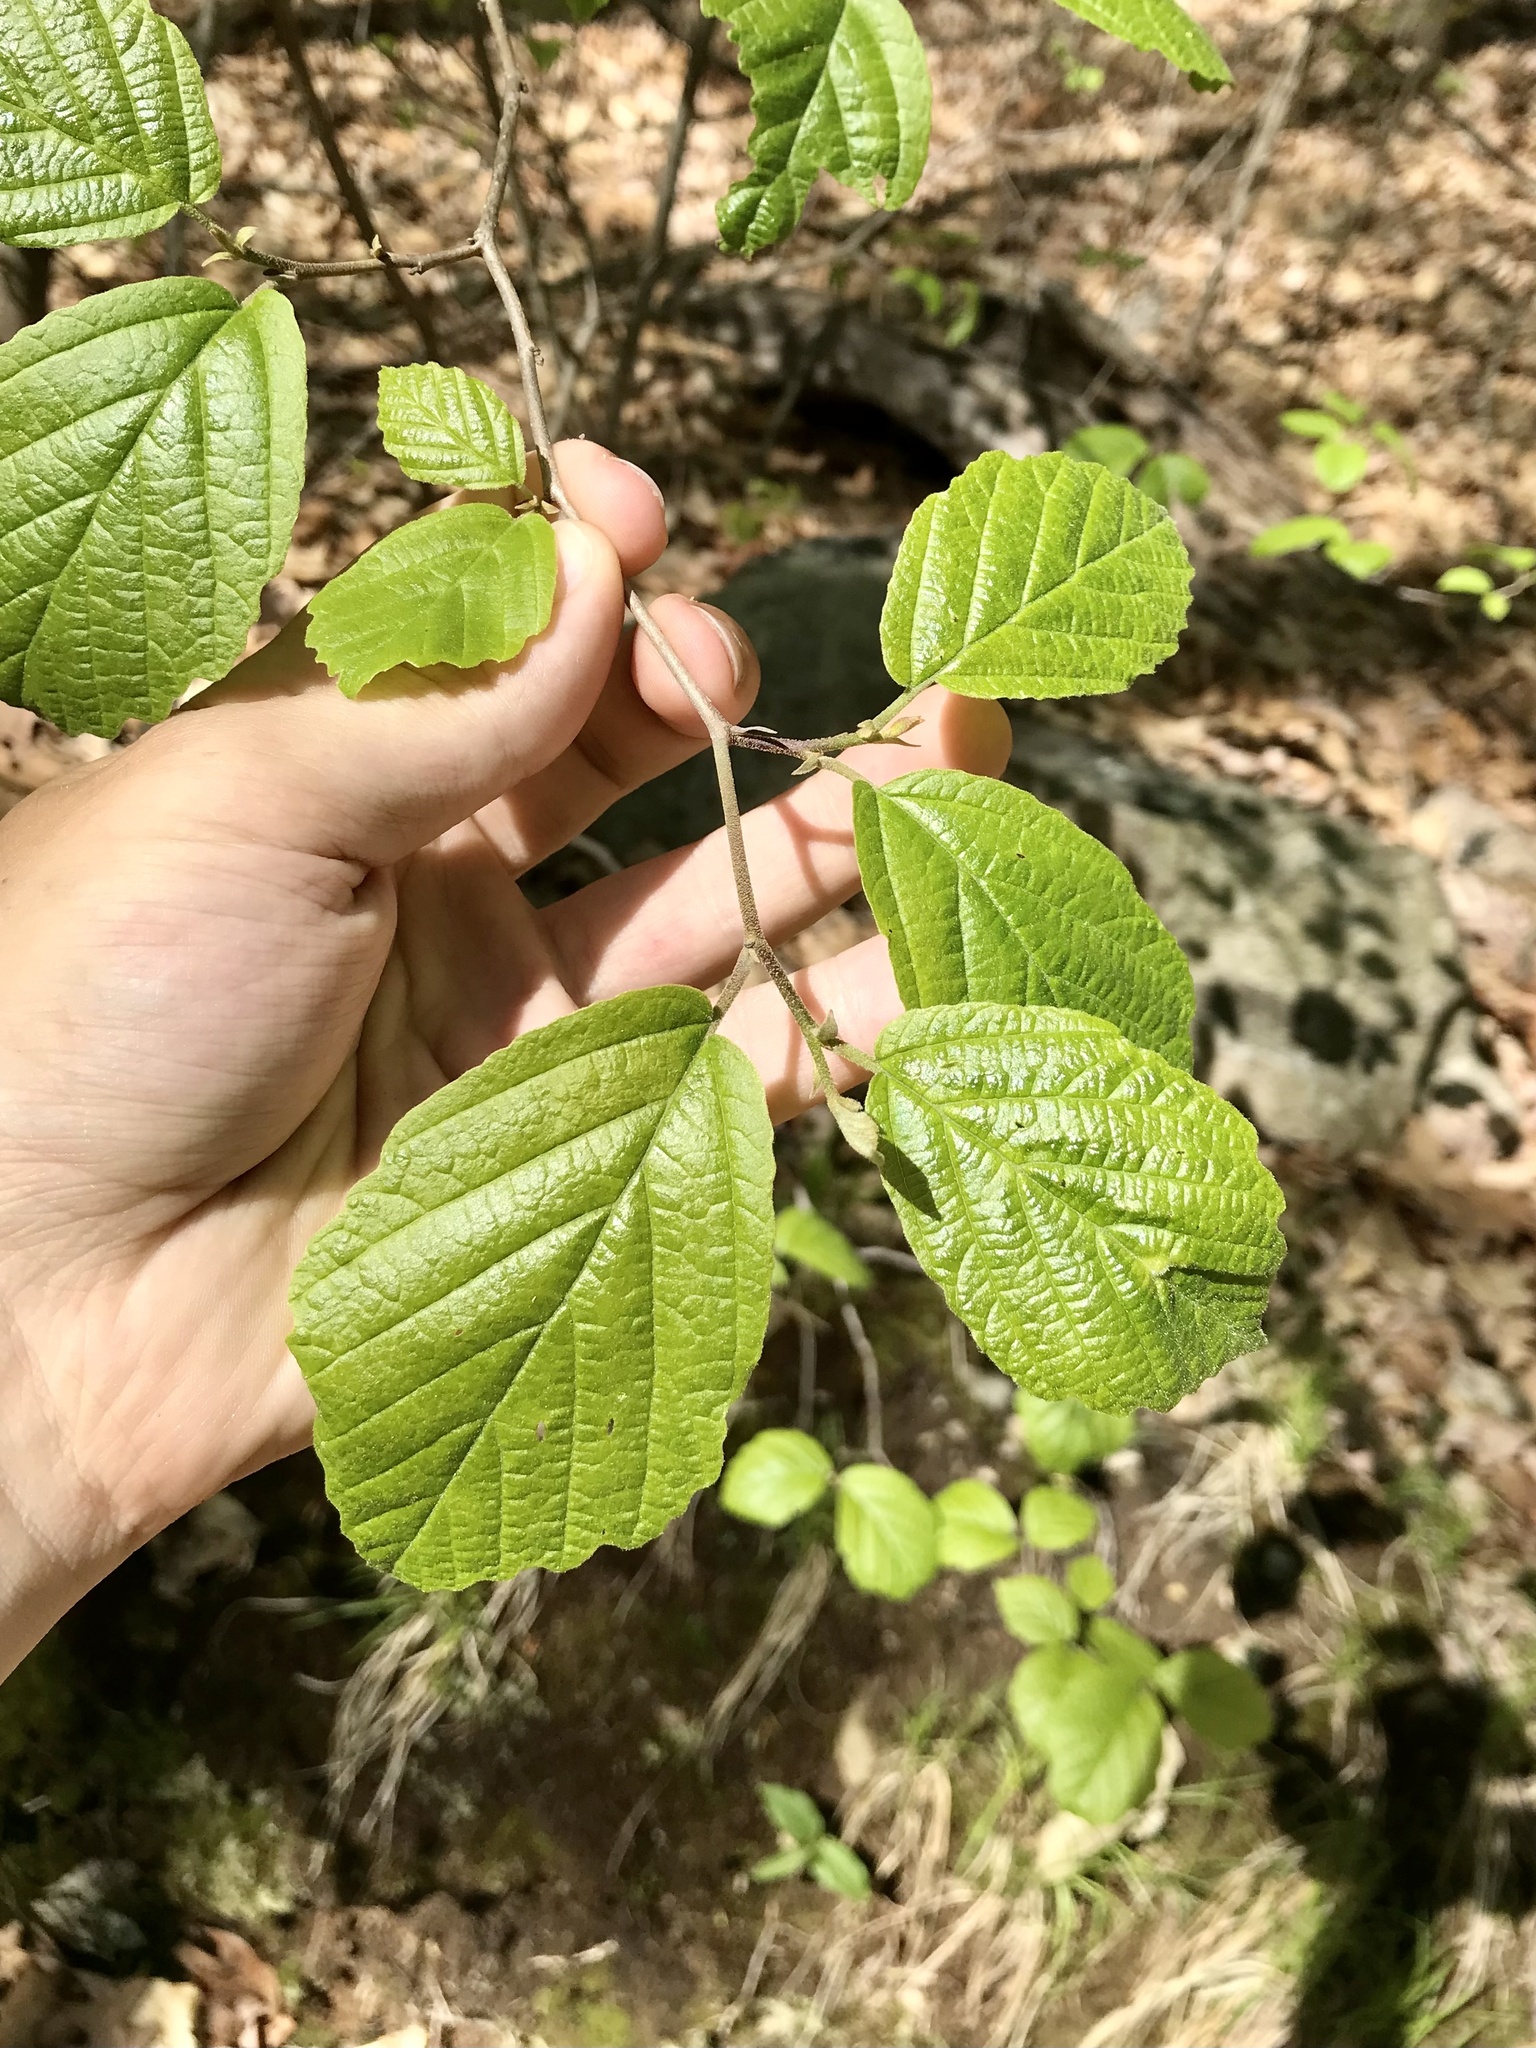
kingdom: Plantae
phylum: Tracheophyta
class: Magnoliopsida
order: Saxifragales
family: Hamamelidaceae
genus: Hamamelis
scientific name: Hamamelis virginiana
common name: Witch-hazel
